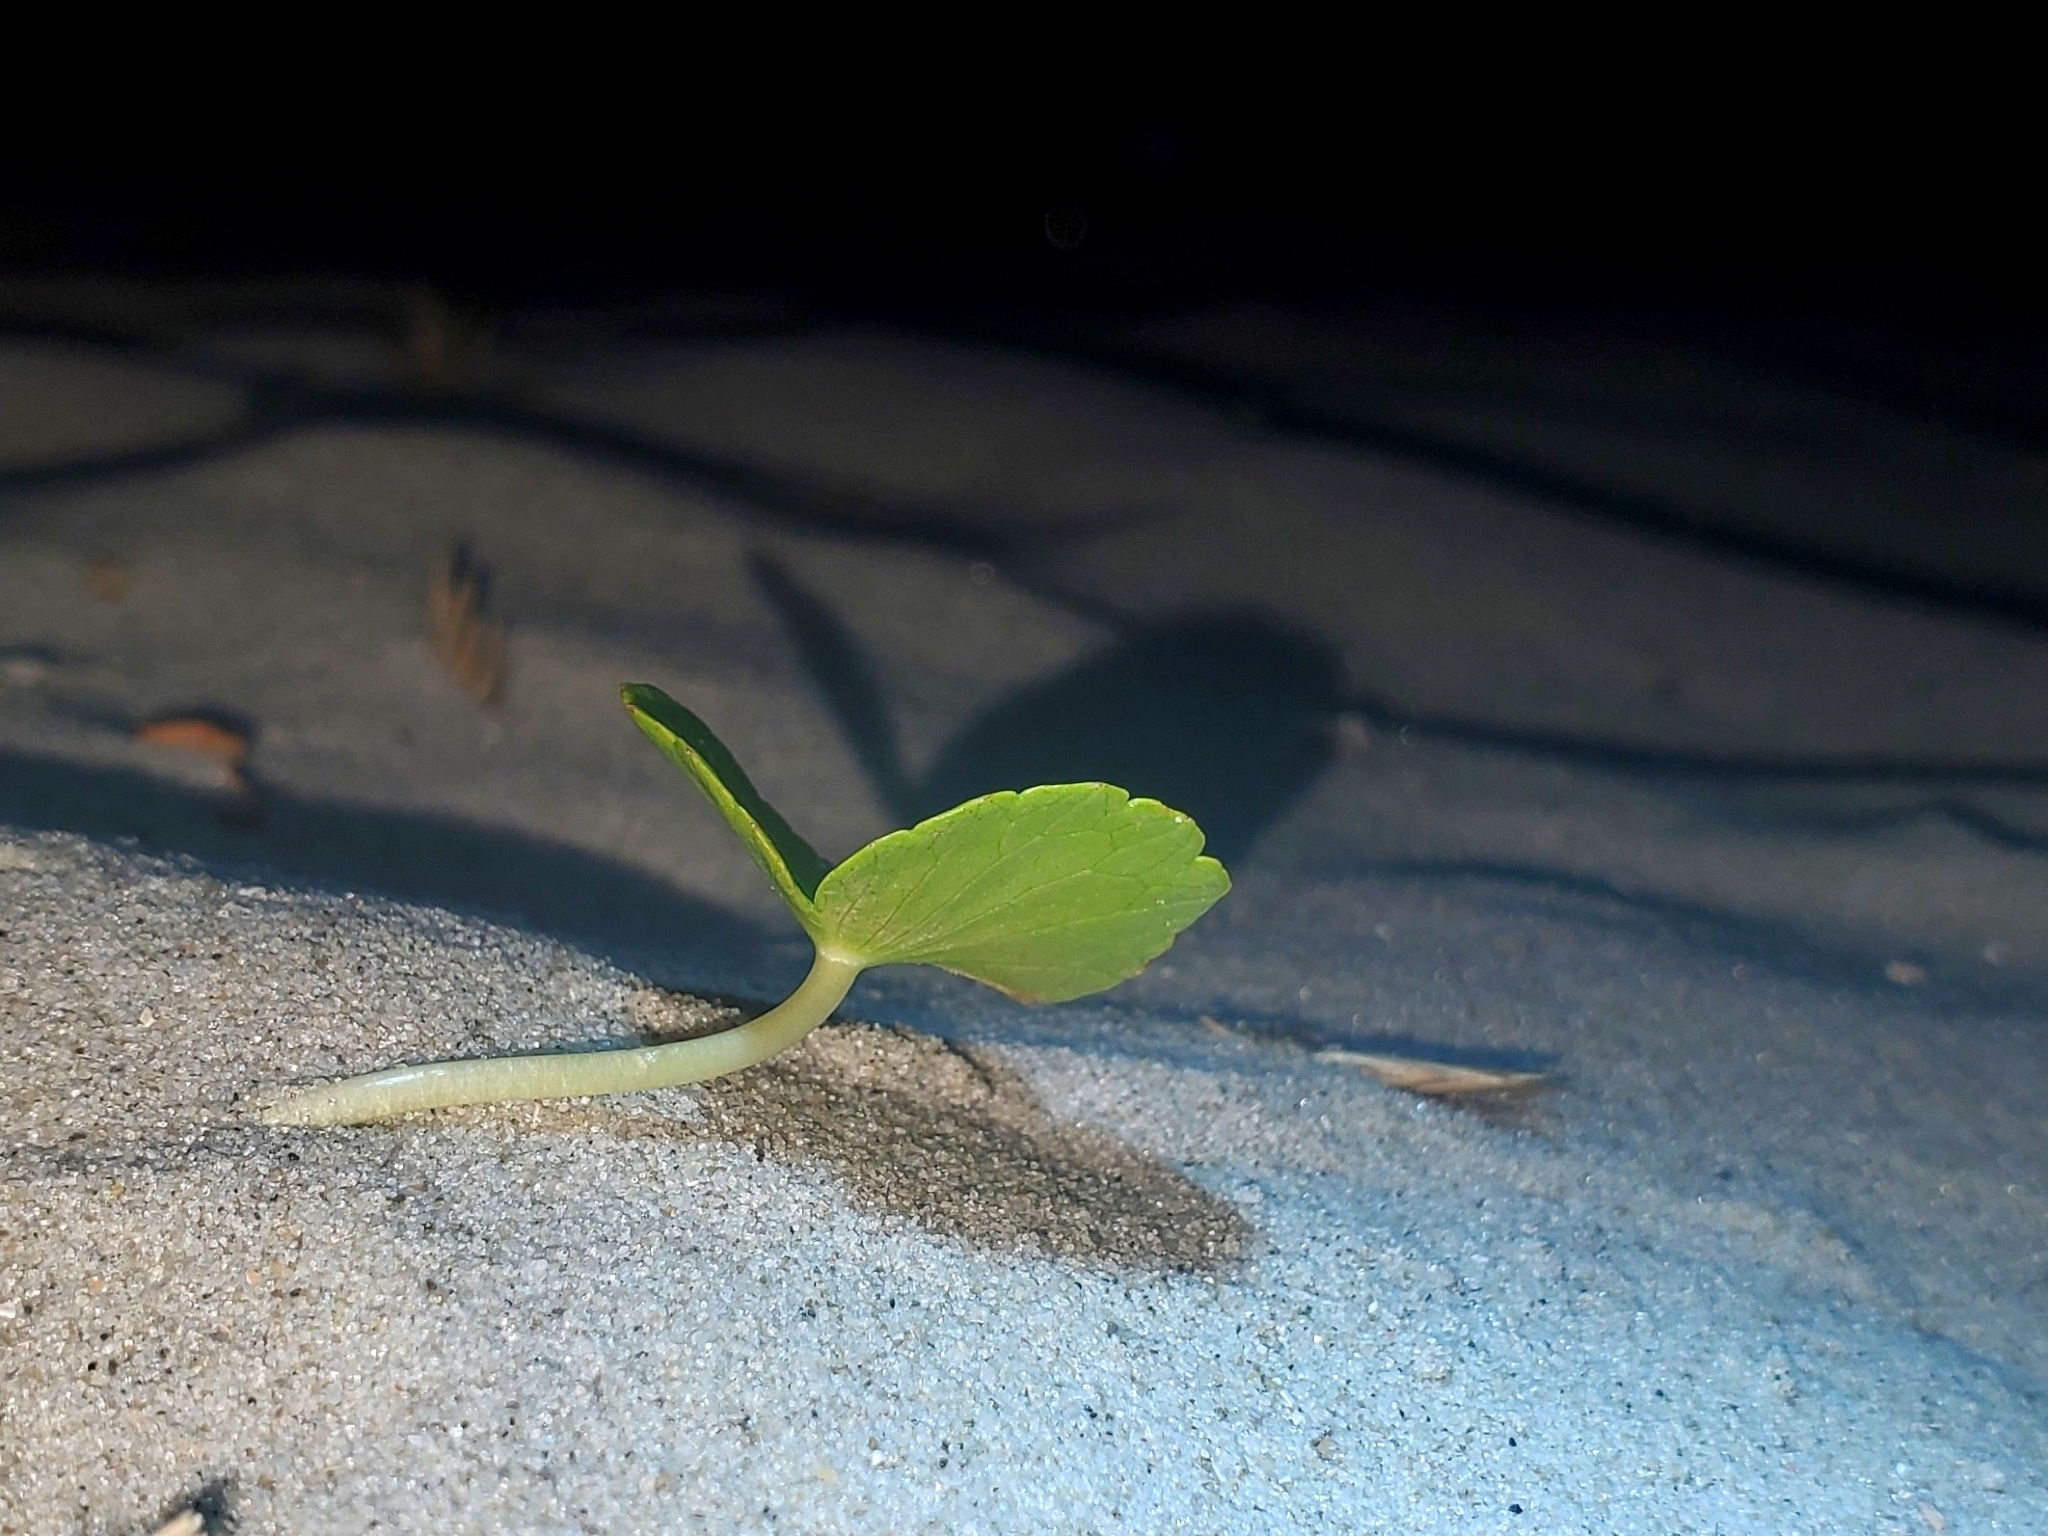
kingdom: Plantae
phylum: Tracheophyta
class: Magnoliopsida
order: Apiales
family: Araliaceae
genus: Hydrocotyle
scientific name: Hydrocotyle bonariensis
